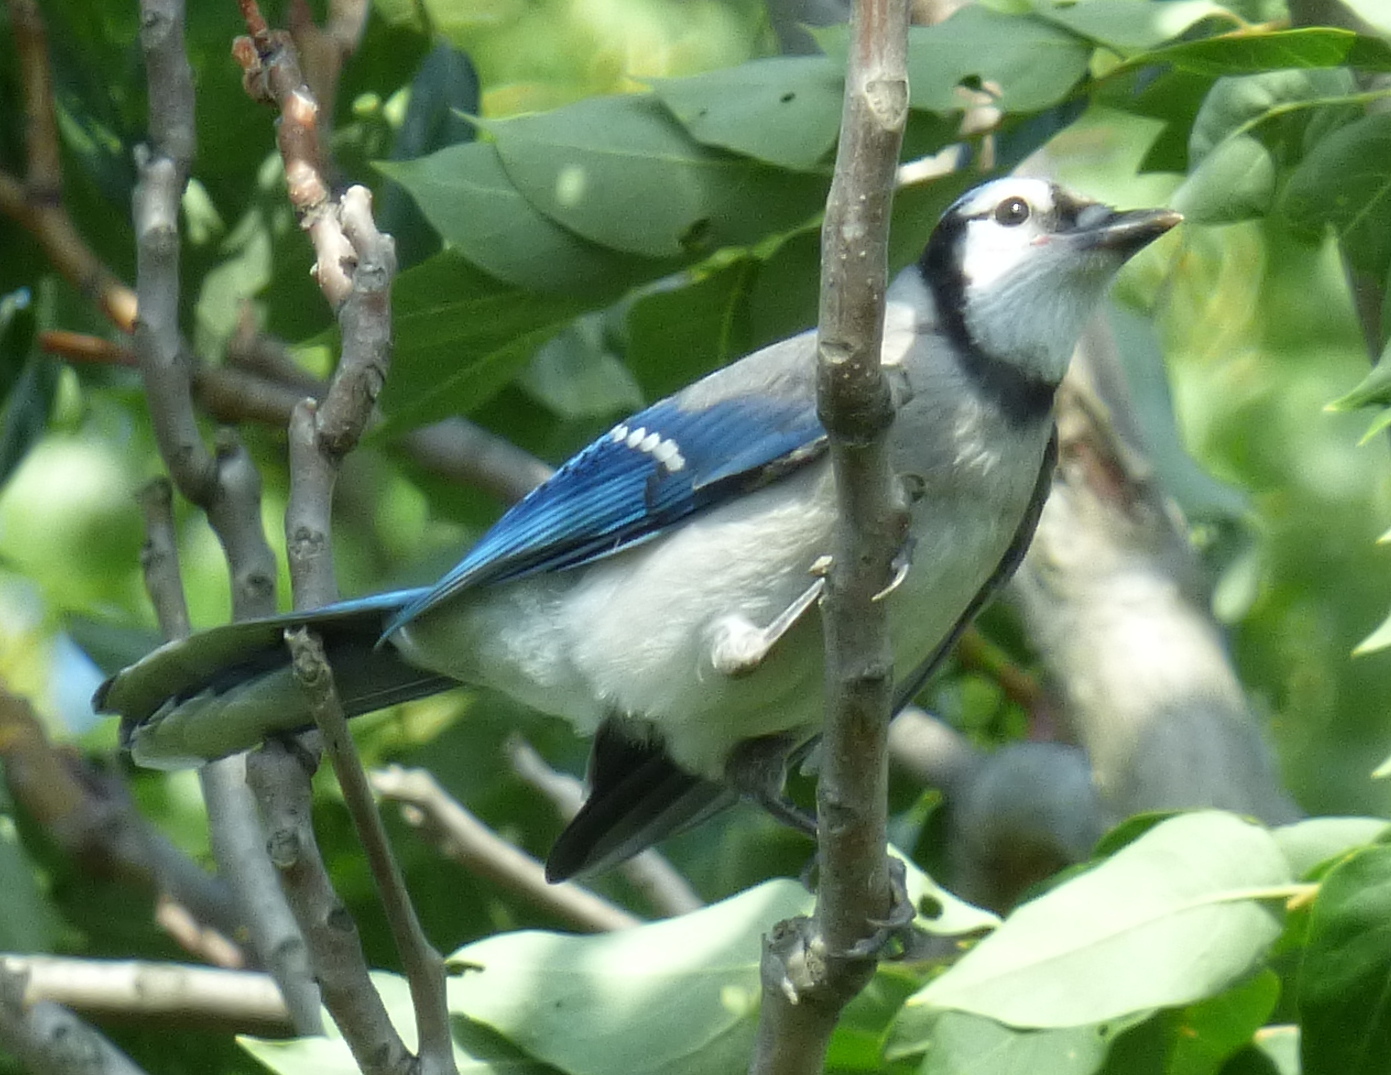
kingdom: Animalia
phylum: Chordata
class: Aves
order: Passeriformes
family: Corvidae
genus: Cyanocitta
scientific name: Cyanocitta cristata
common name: Blue jay
